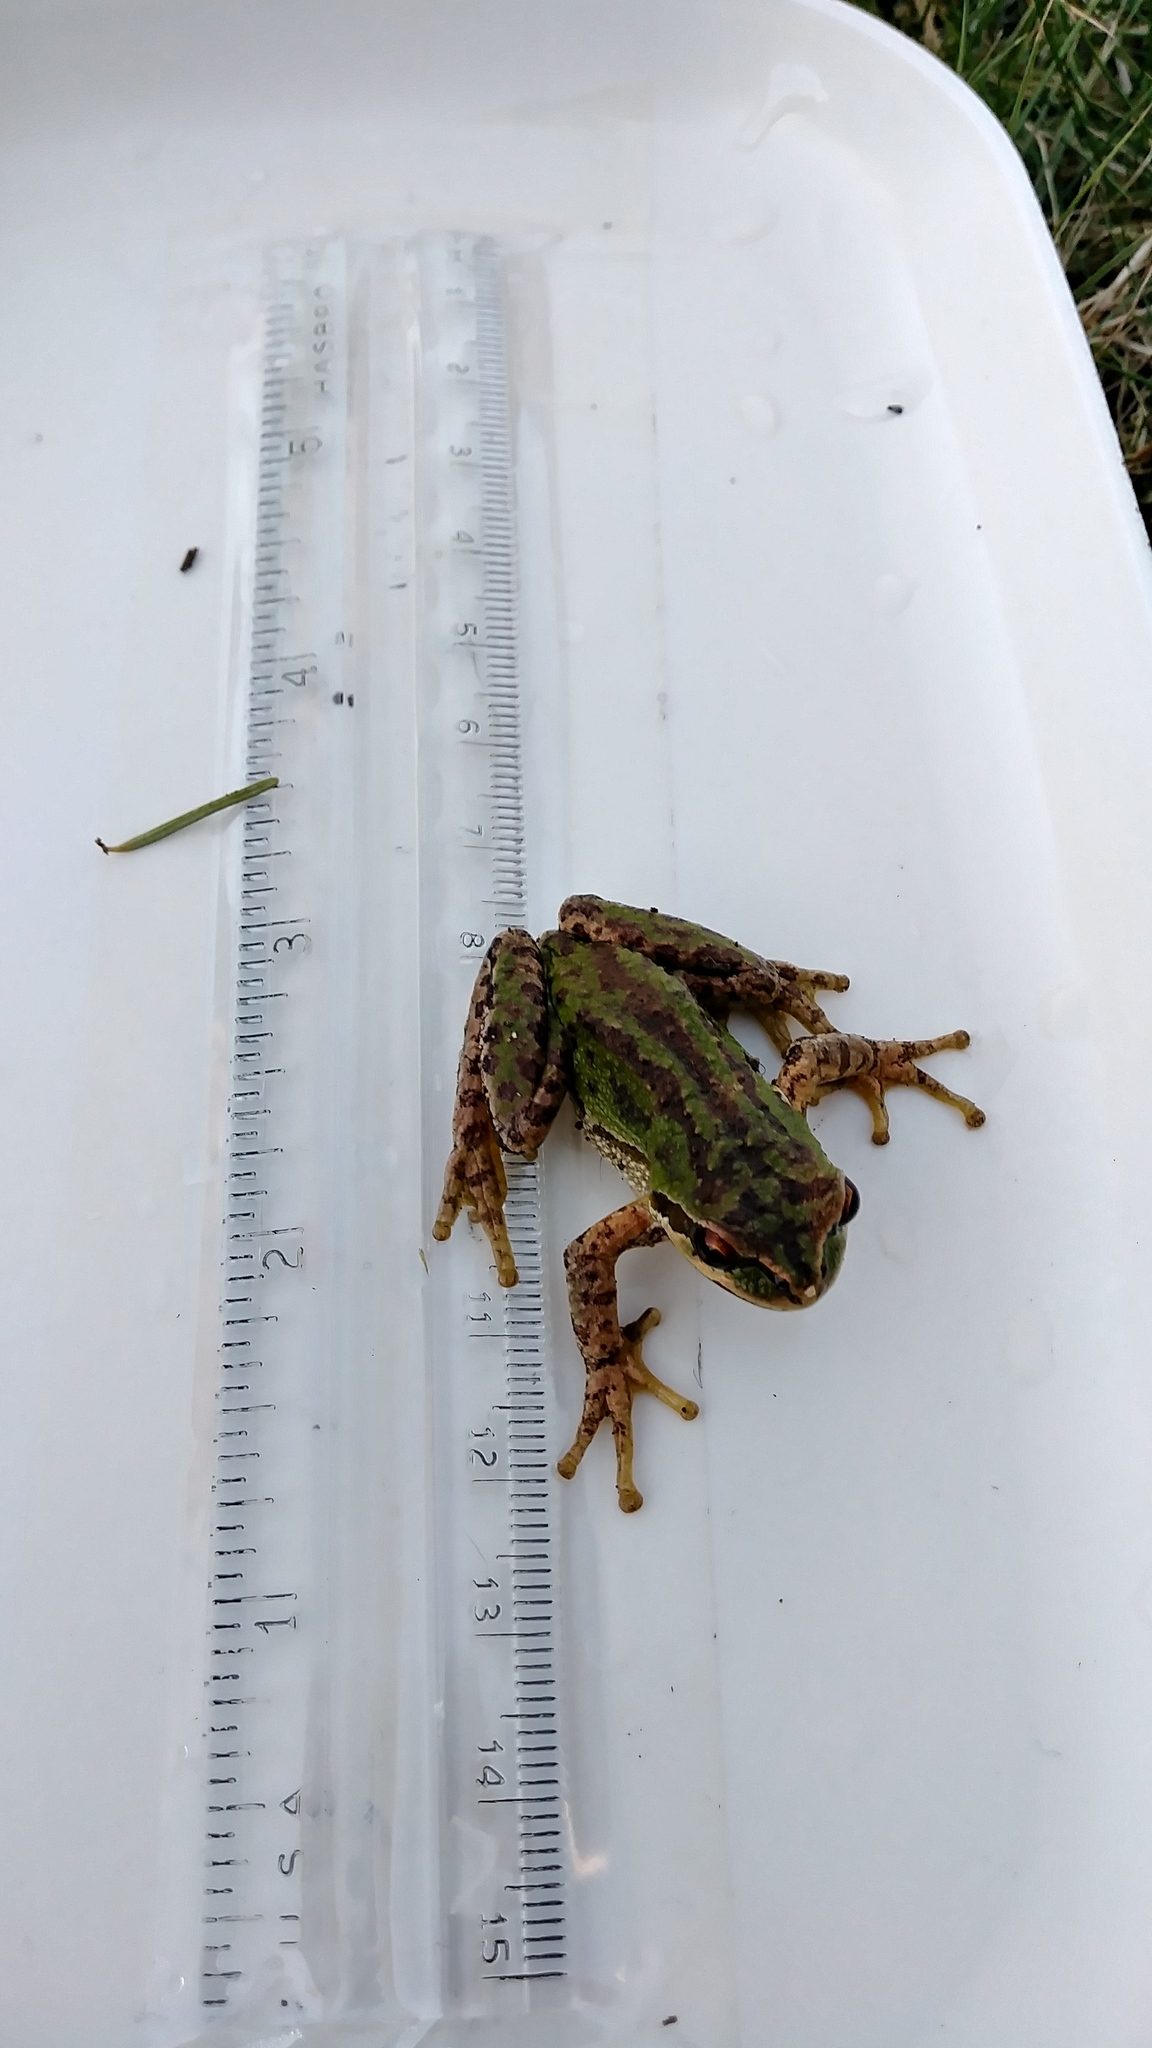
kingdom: Animalia
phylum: Chordata
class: Amphibia
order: Anura
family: Hylidae
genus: Pseudacris
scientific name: Pseudacris regilla
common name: Pacific chorus frog
